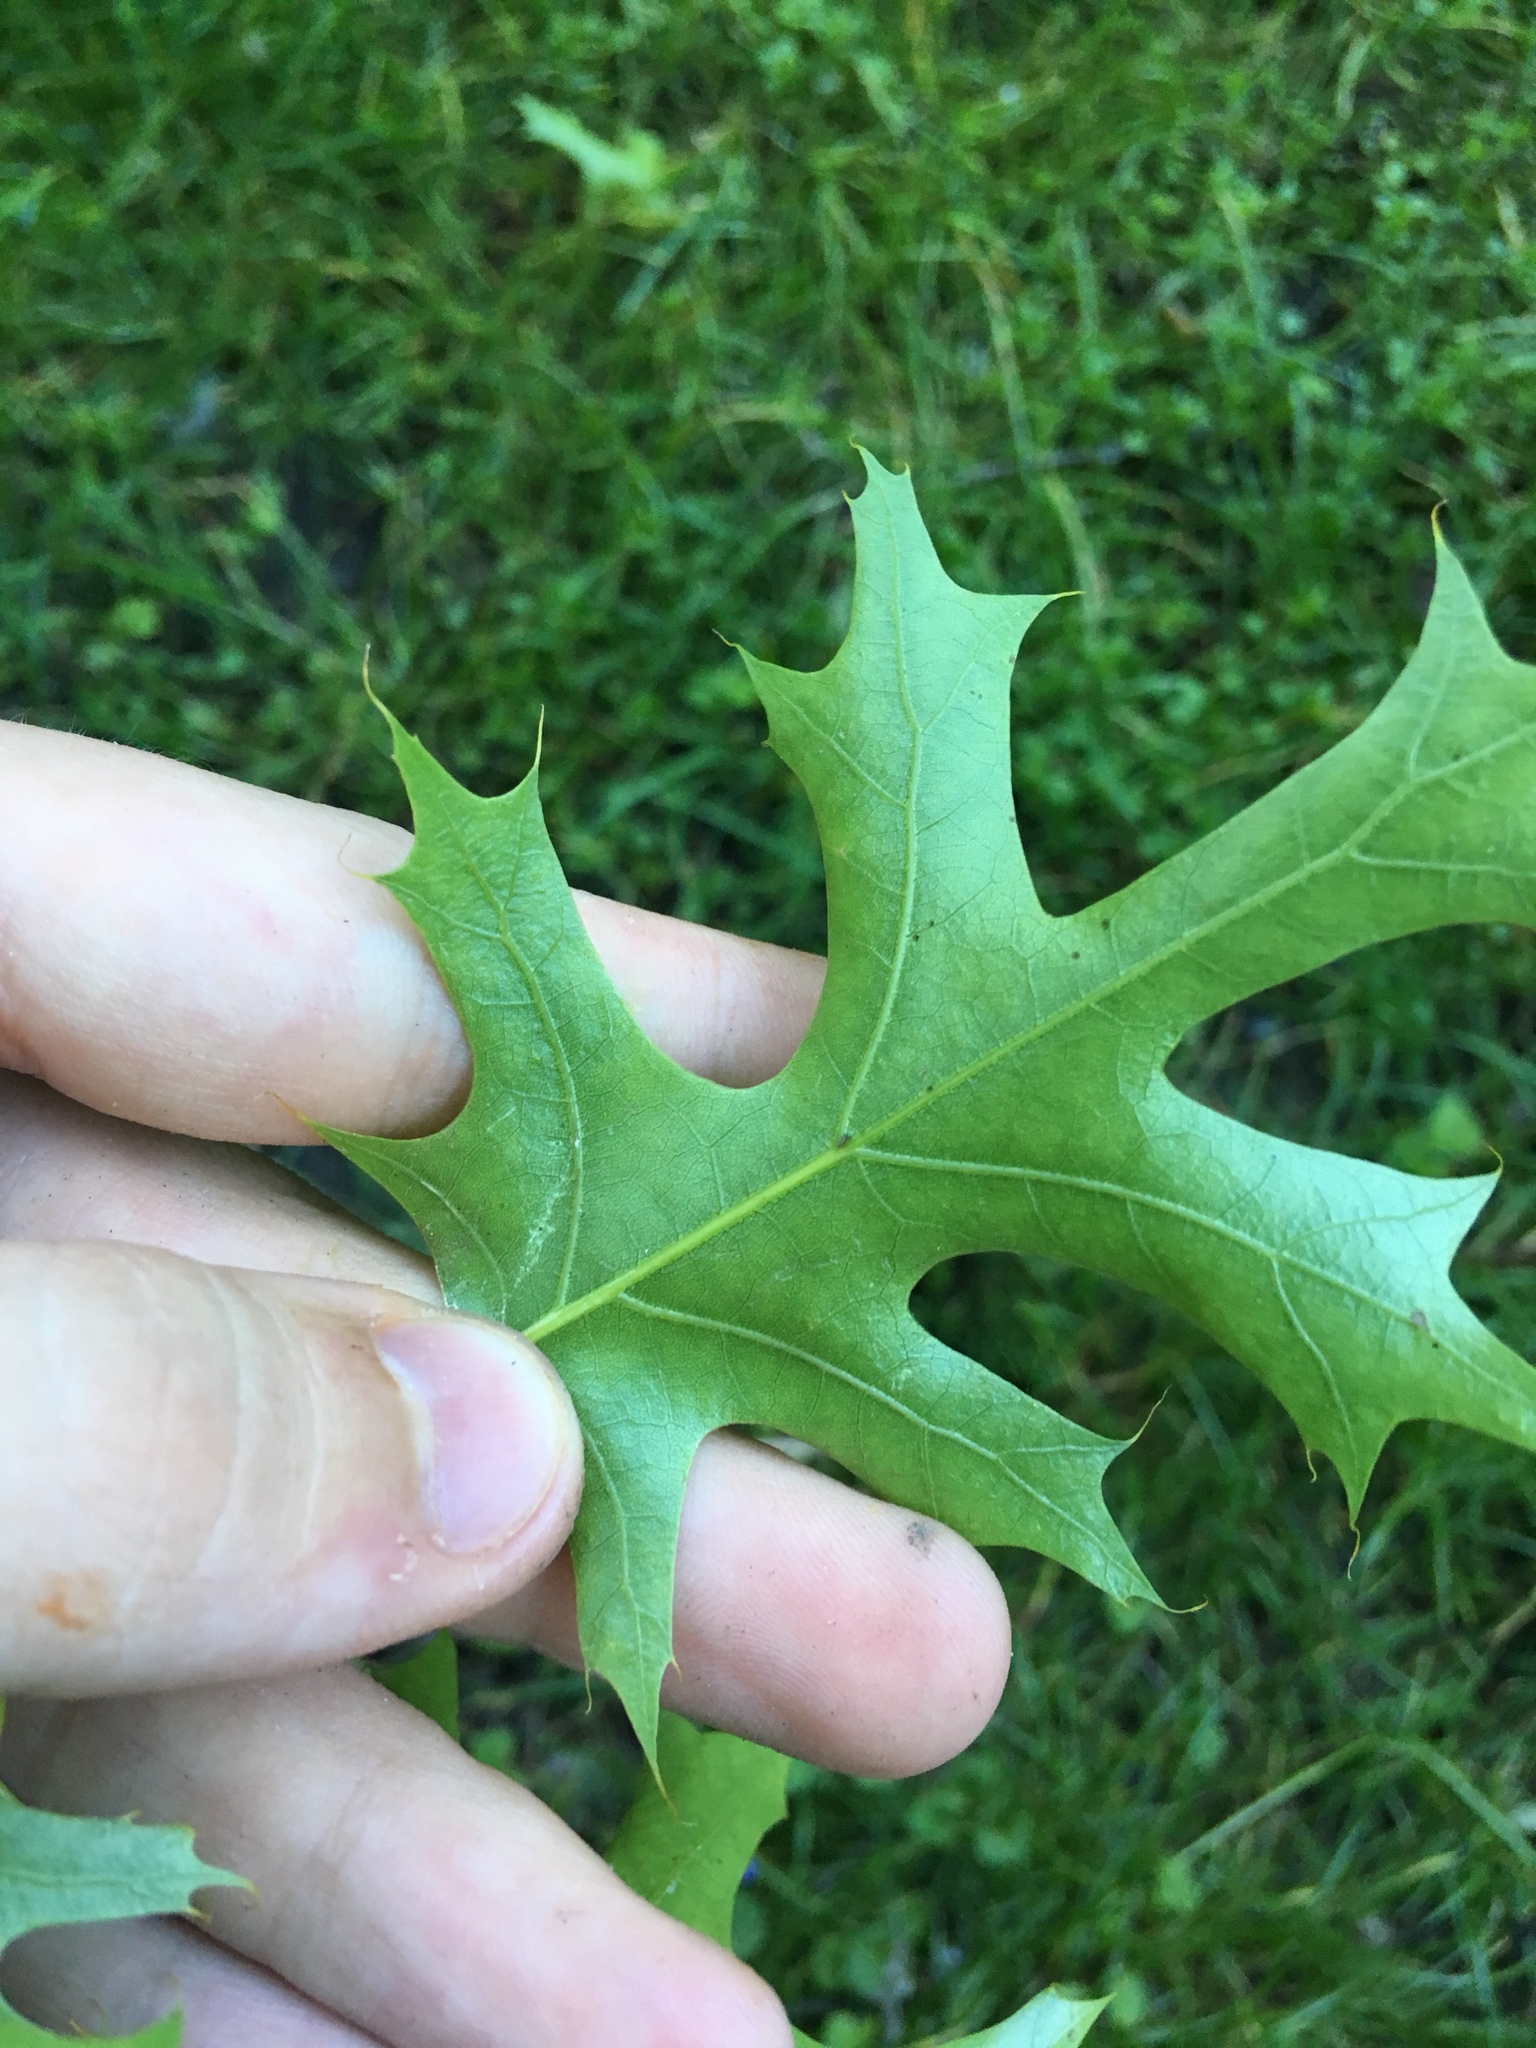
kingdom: Plantae
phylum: Tracheophyta
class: Magnoliopsida
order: Fagales
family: Fagaceae
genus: Quercus
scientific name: Quercus ellipsoidalis
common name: Hill's oak
